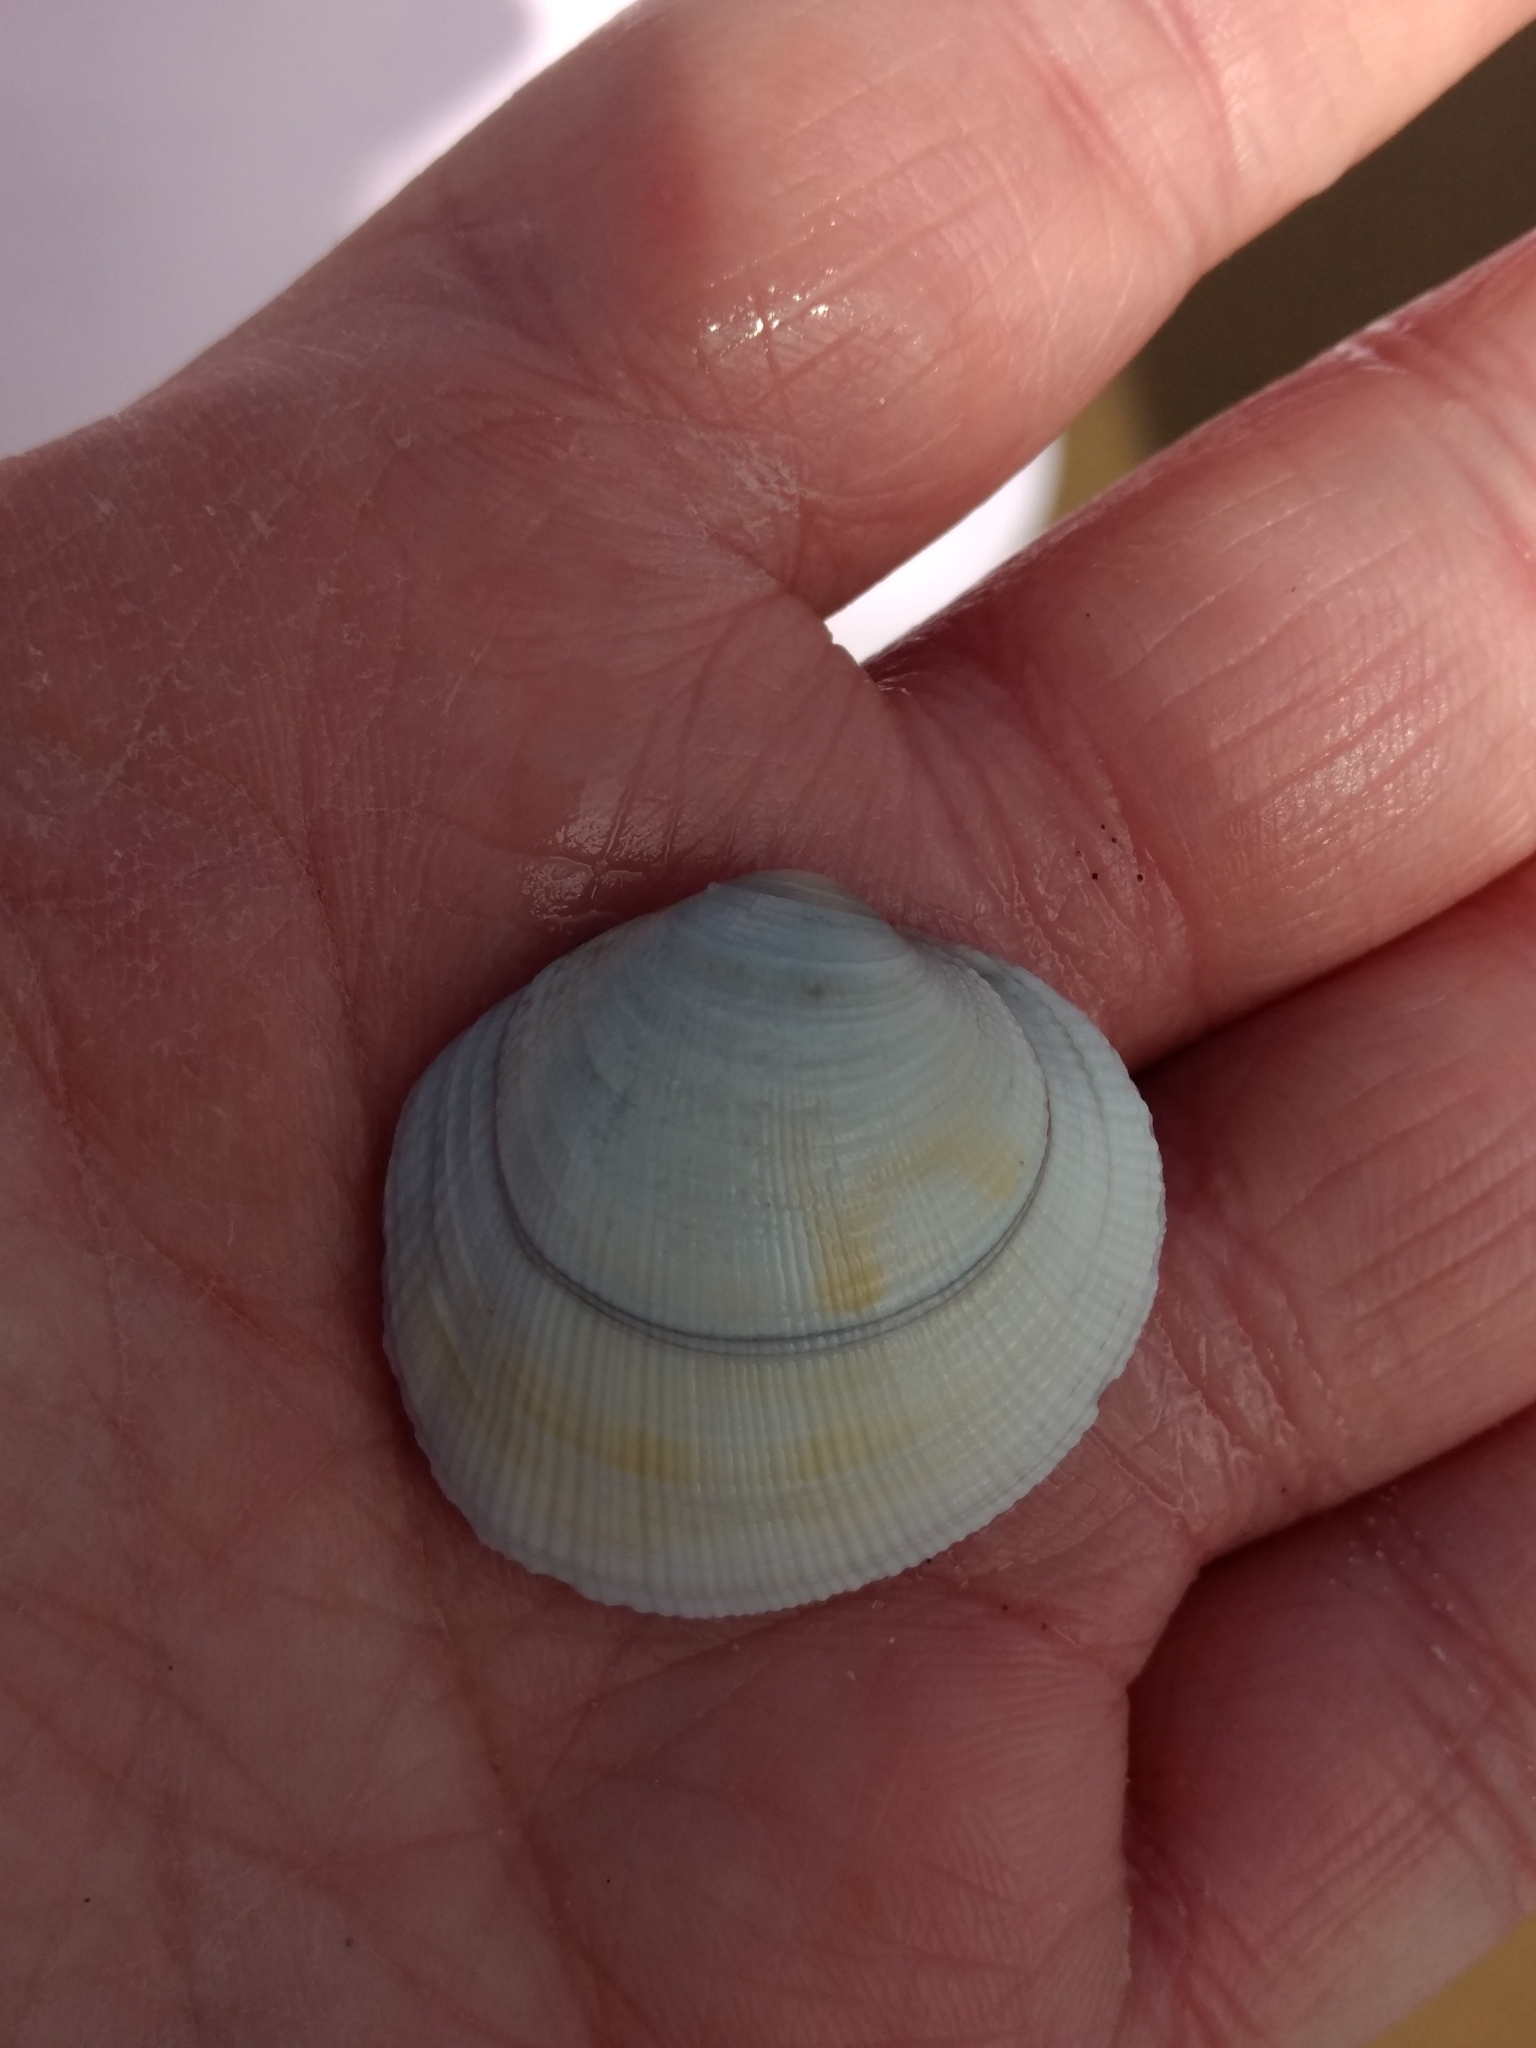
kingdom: Animalia
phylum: Mollusca
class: Bivalvia
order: Venerida
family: Veneridae
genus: Leukoma
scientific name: Leukoma staminea
